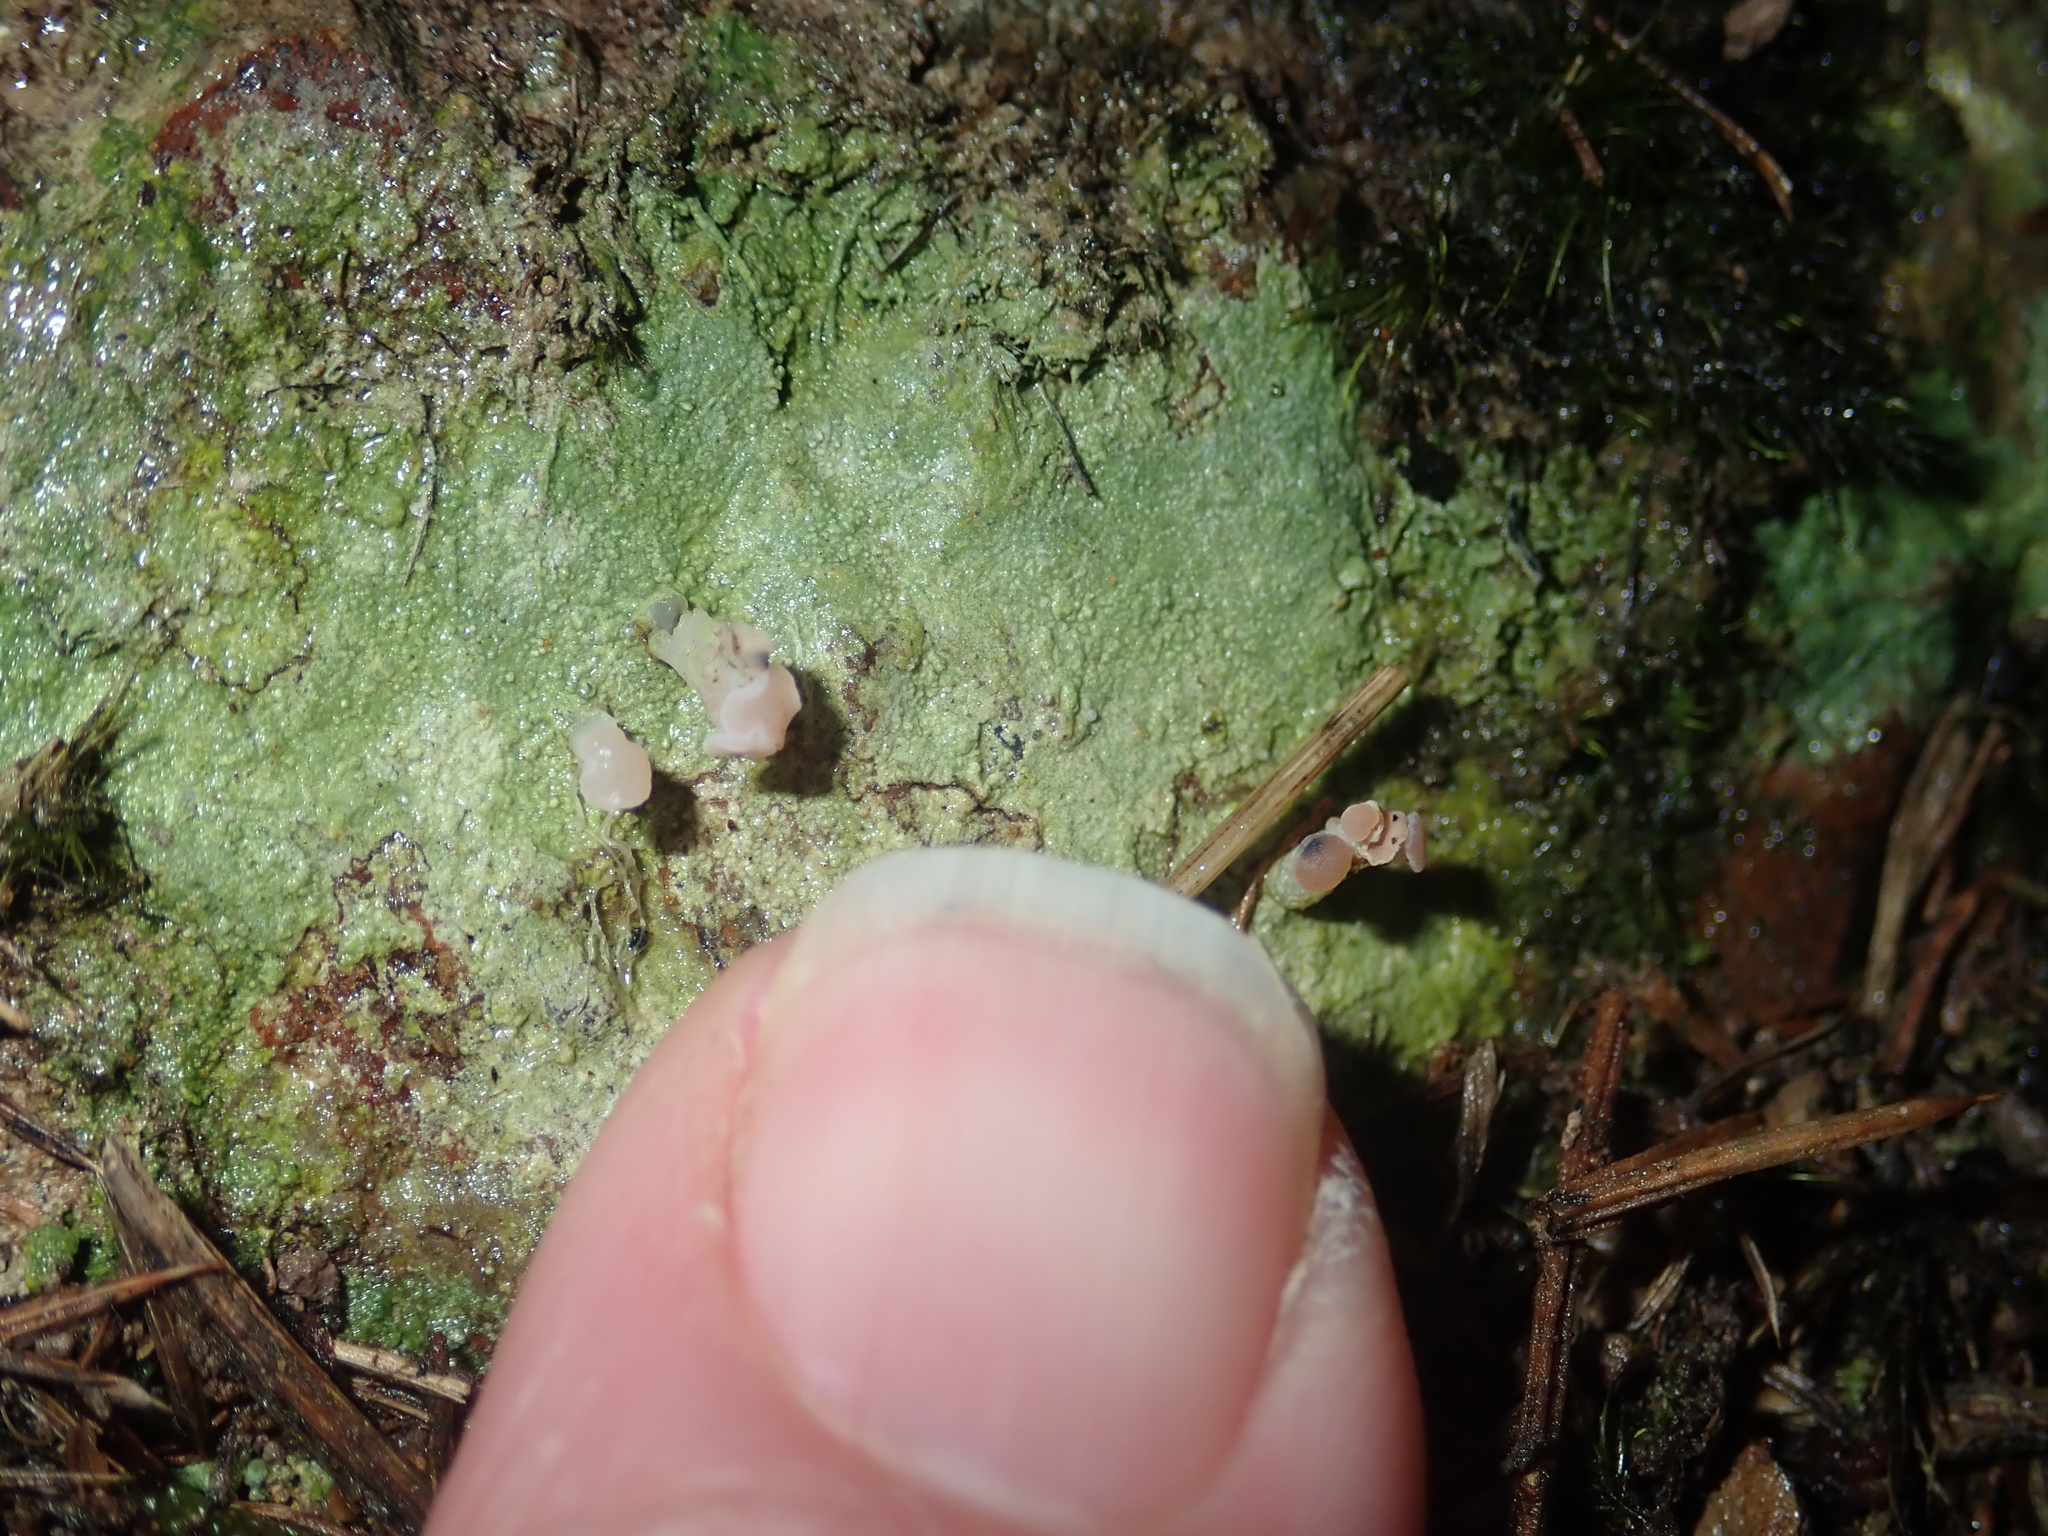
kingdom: Fungi
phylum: Ascomycota
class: Lecanoromycetes
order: Baeomycetales
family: Baeomycetaceae
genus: Baeomyces
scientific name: Baeomyces heteromorphus
